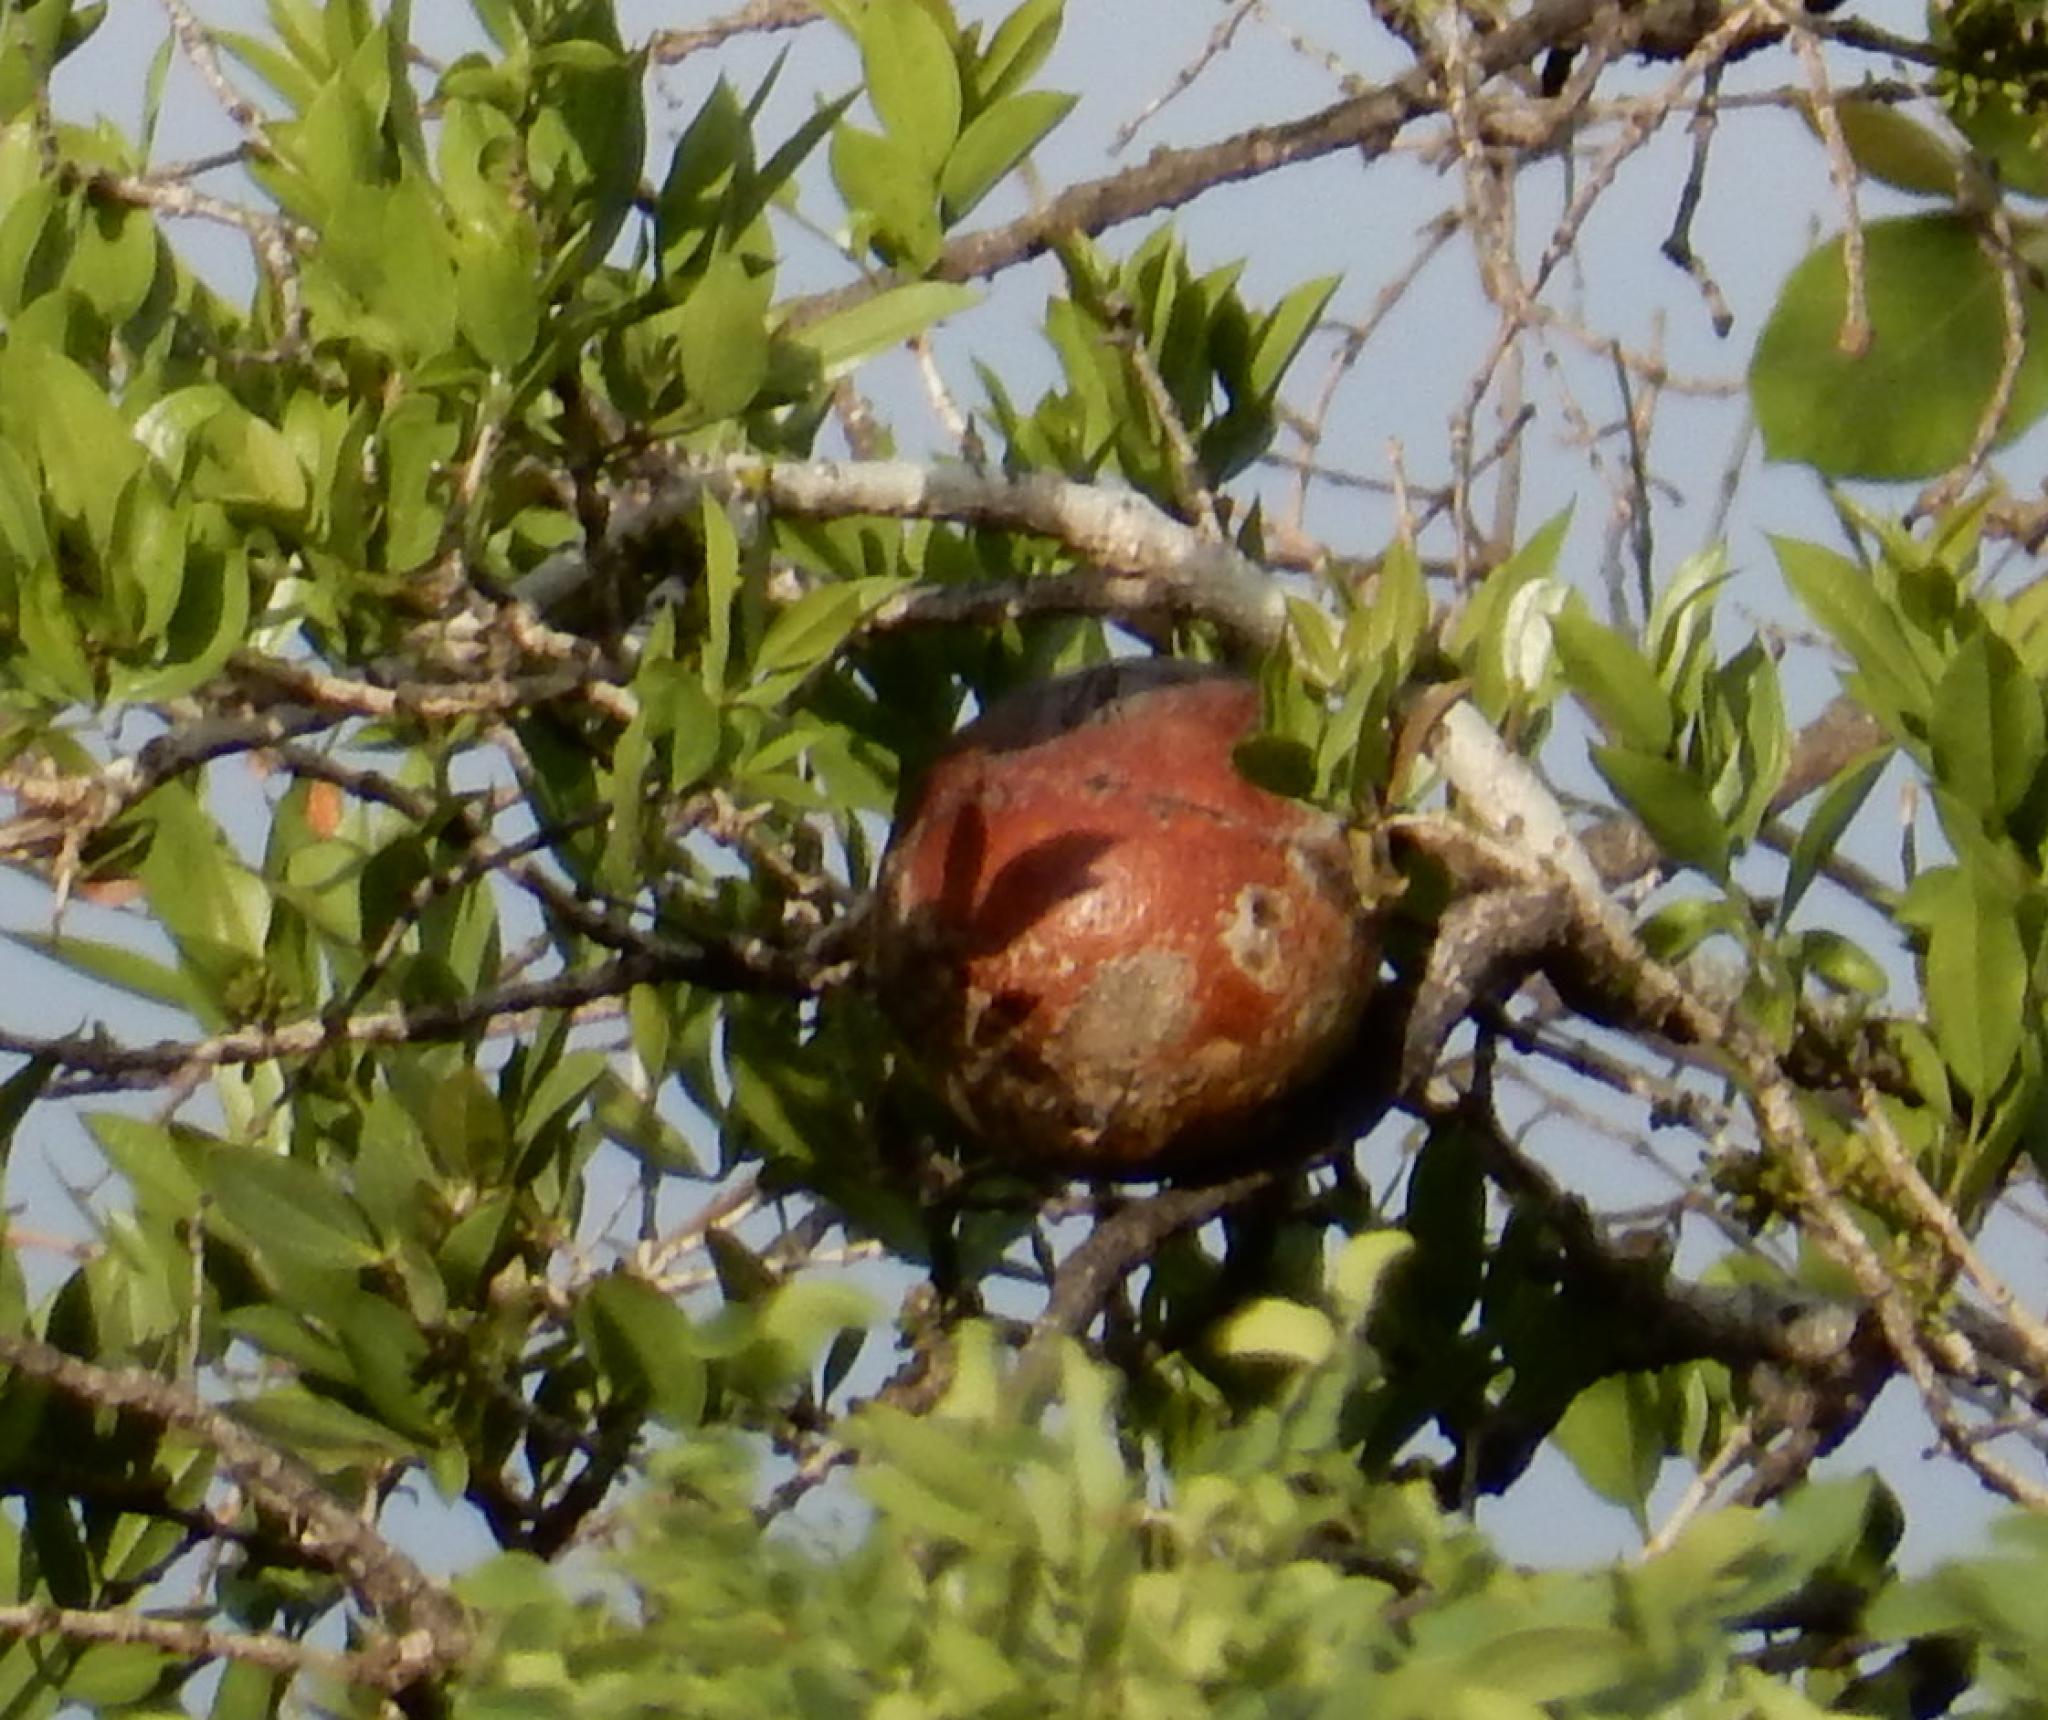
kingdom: Plantae
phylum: Tracheophyta
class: Magnoliopsida
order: Gentianales
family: Loganiaceae
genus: Strychnos
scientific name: Strychnos pungens
